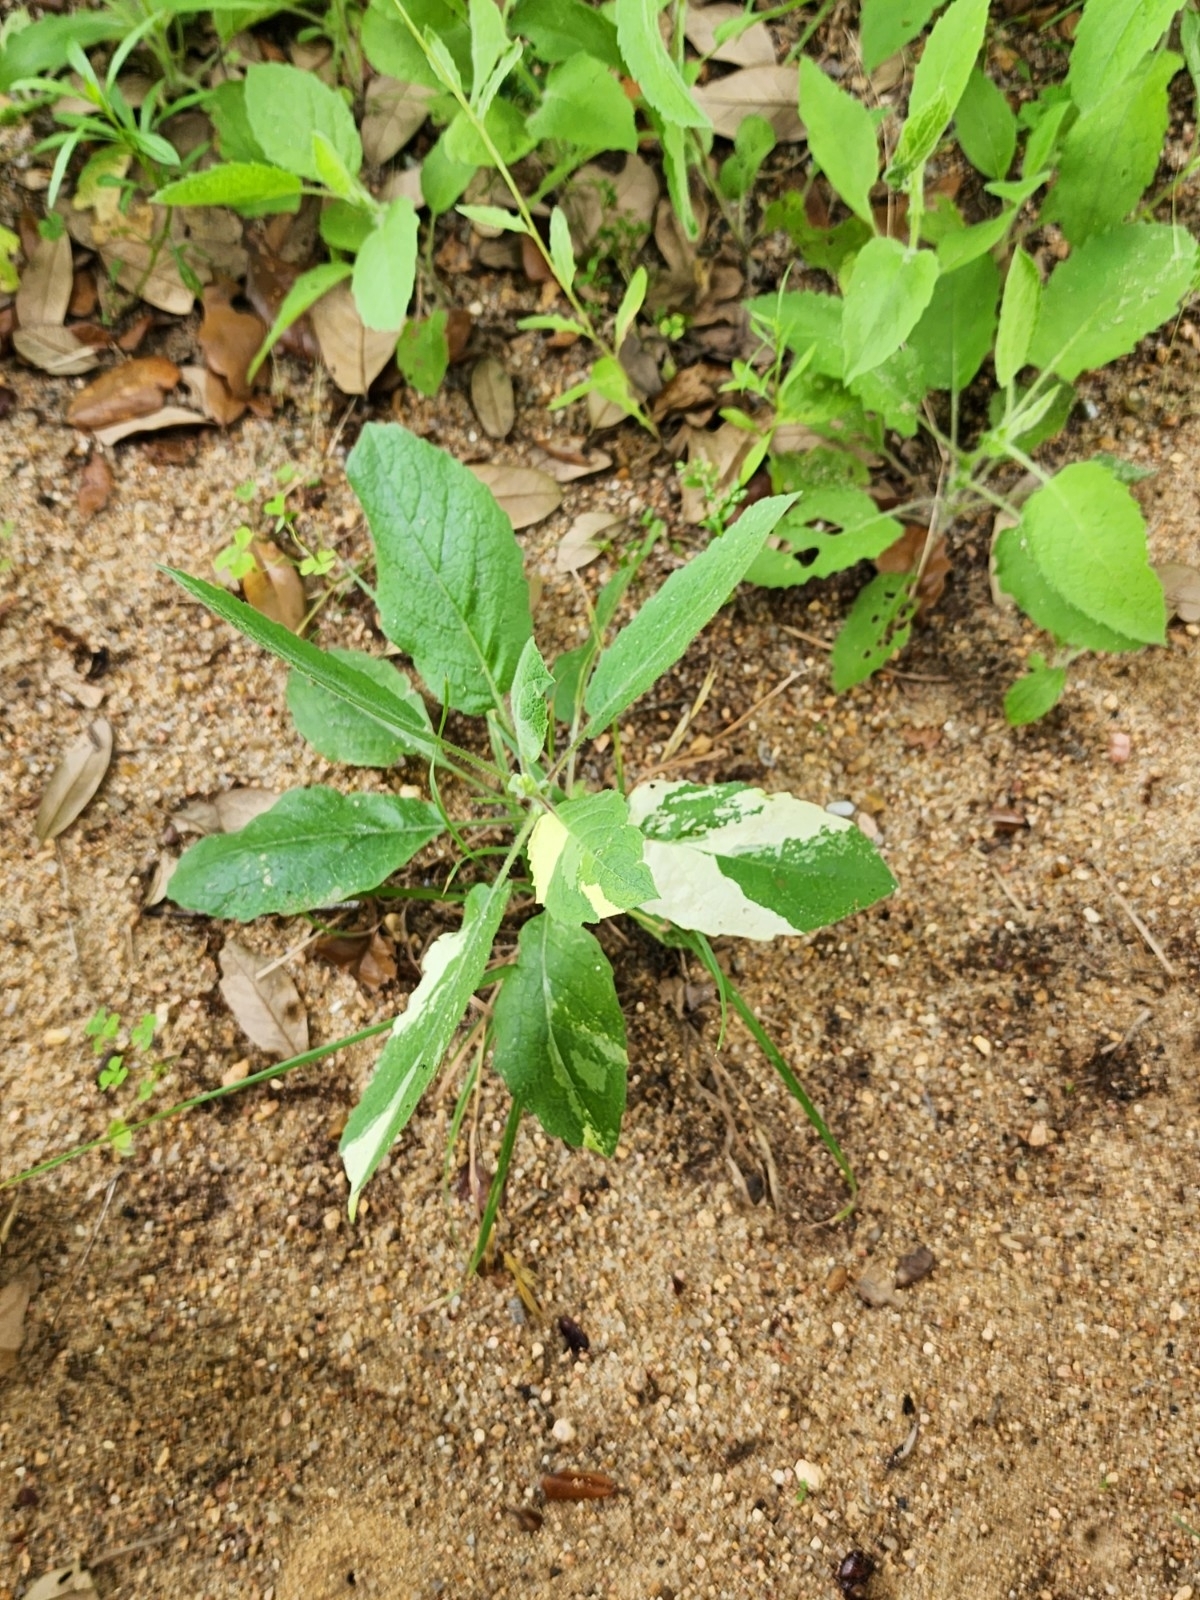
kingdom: Plantae
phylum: Tracheophyta
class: Magnoliopsida
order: Asterales
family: Asteraceae
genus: Heterotheca
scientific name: Heterotheca subaxillaris
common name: Camphorweed
